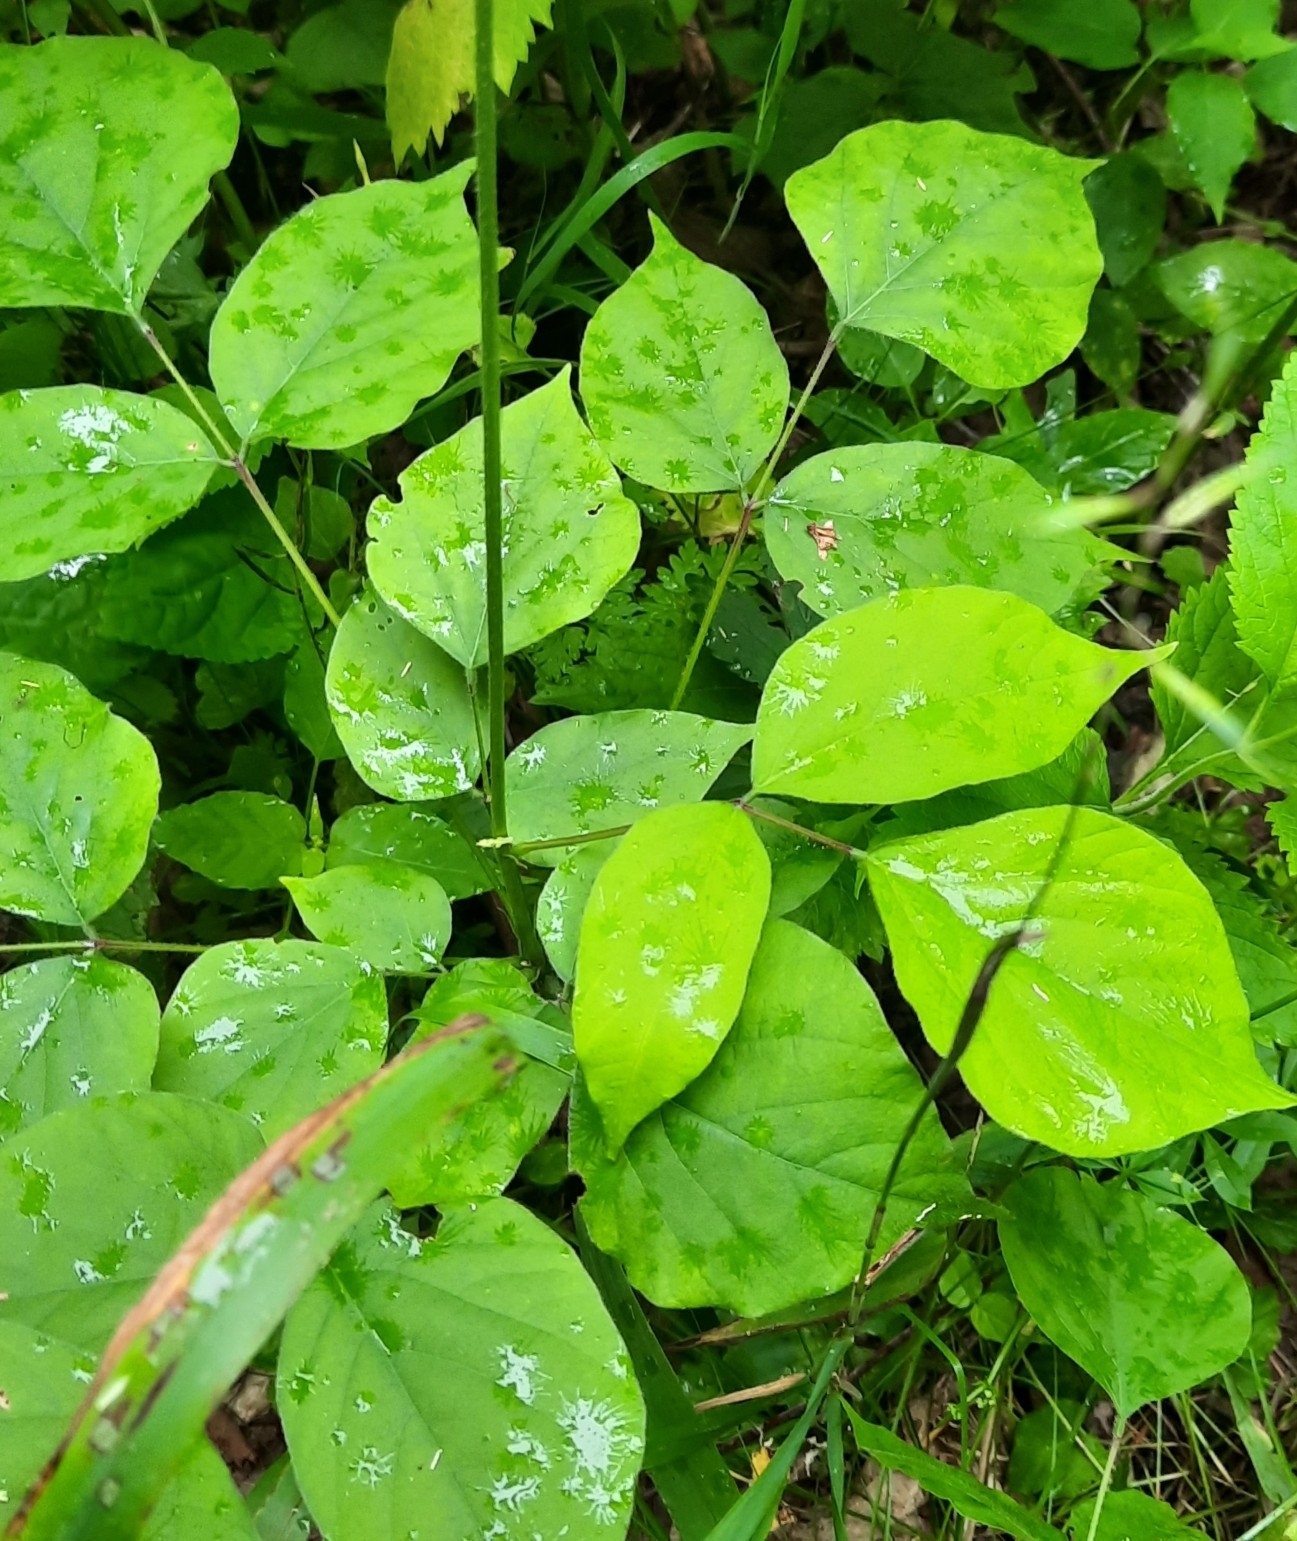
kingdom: Plantae
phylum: Tracheophyta
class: Magnoliopsida
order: Fabales
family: Fabaceae
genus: Hylodesmum
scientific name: Hylodesmum glutinosum
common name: Clustered-leaved tick-trefoil
